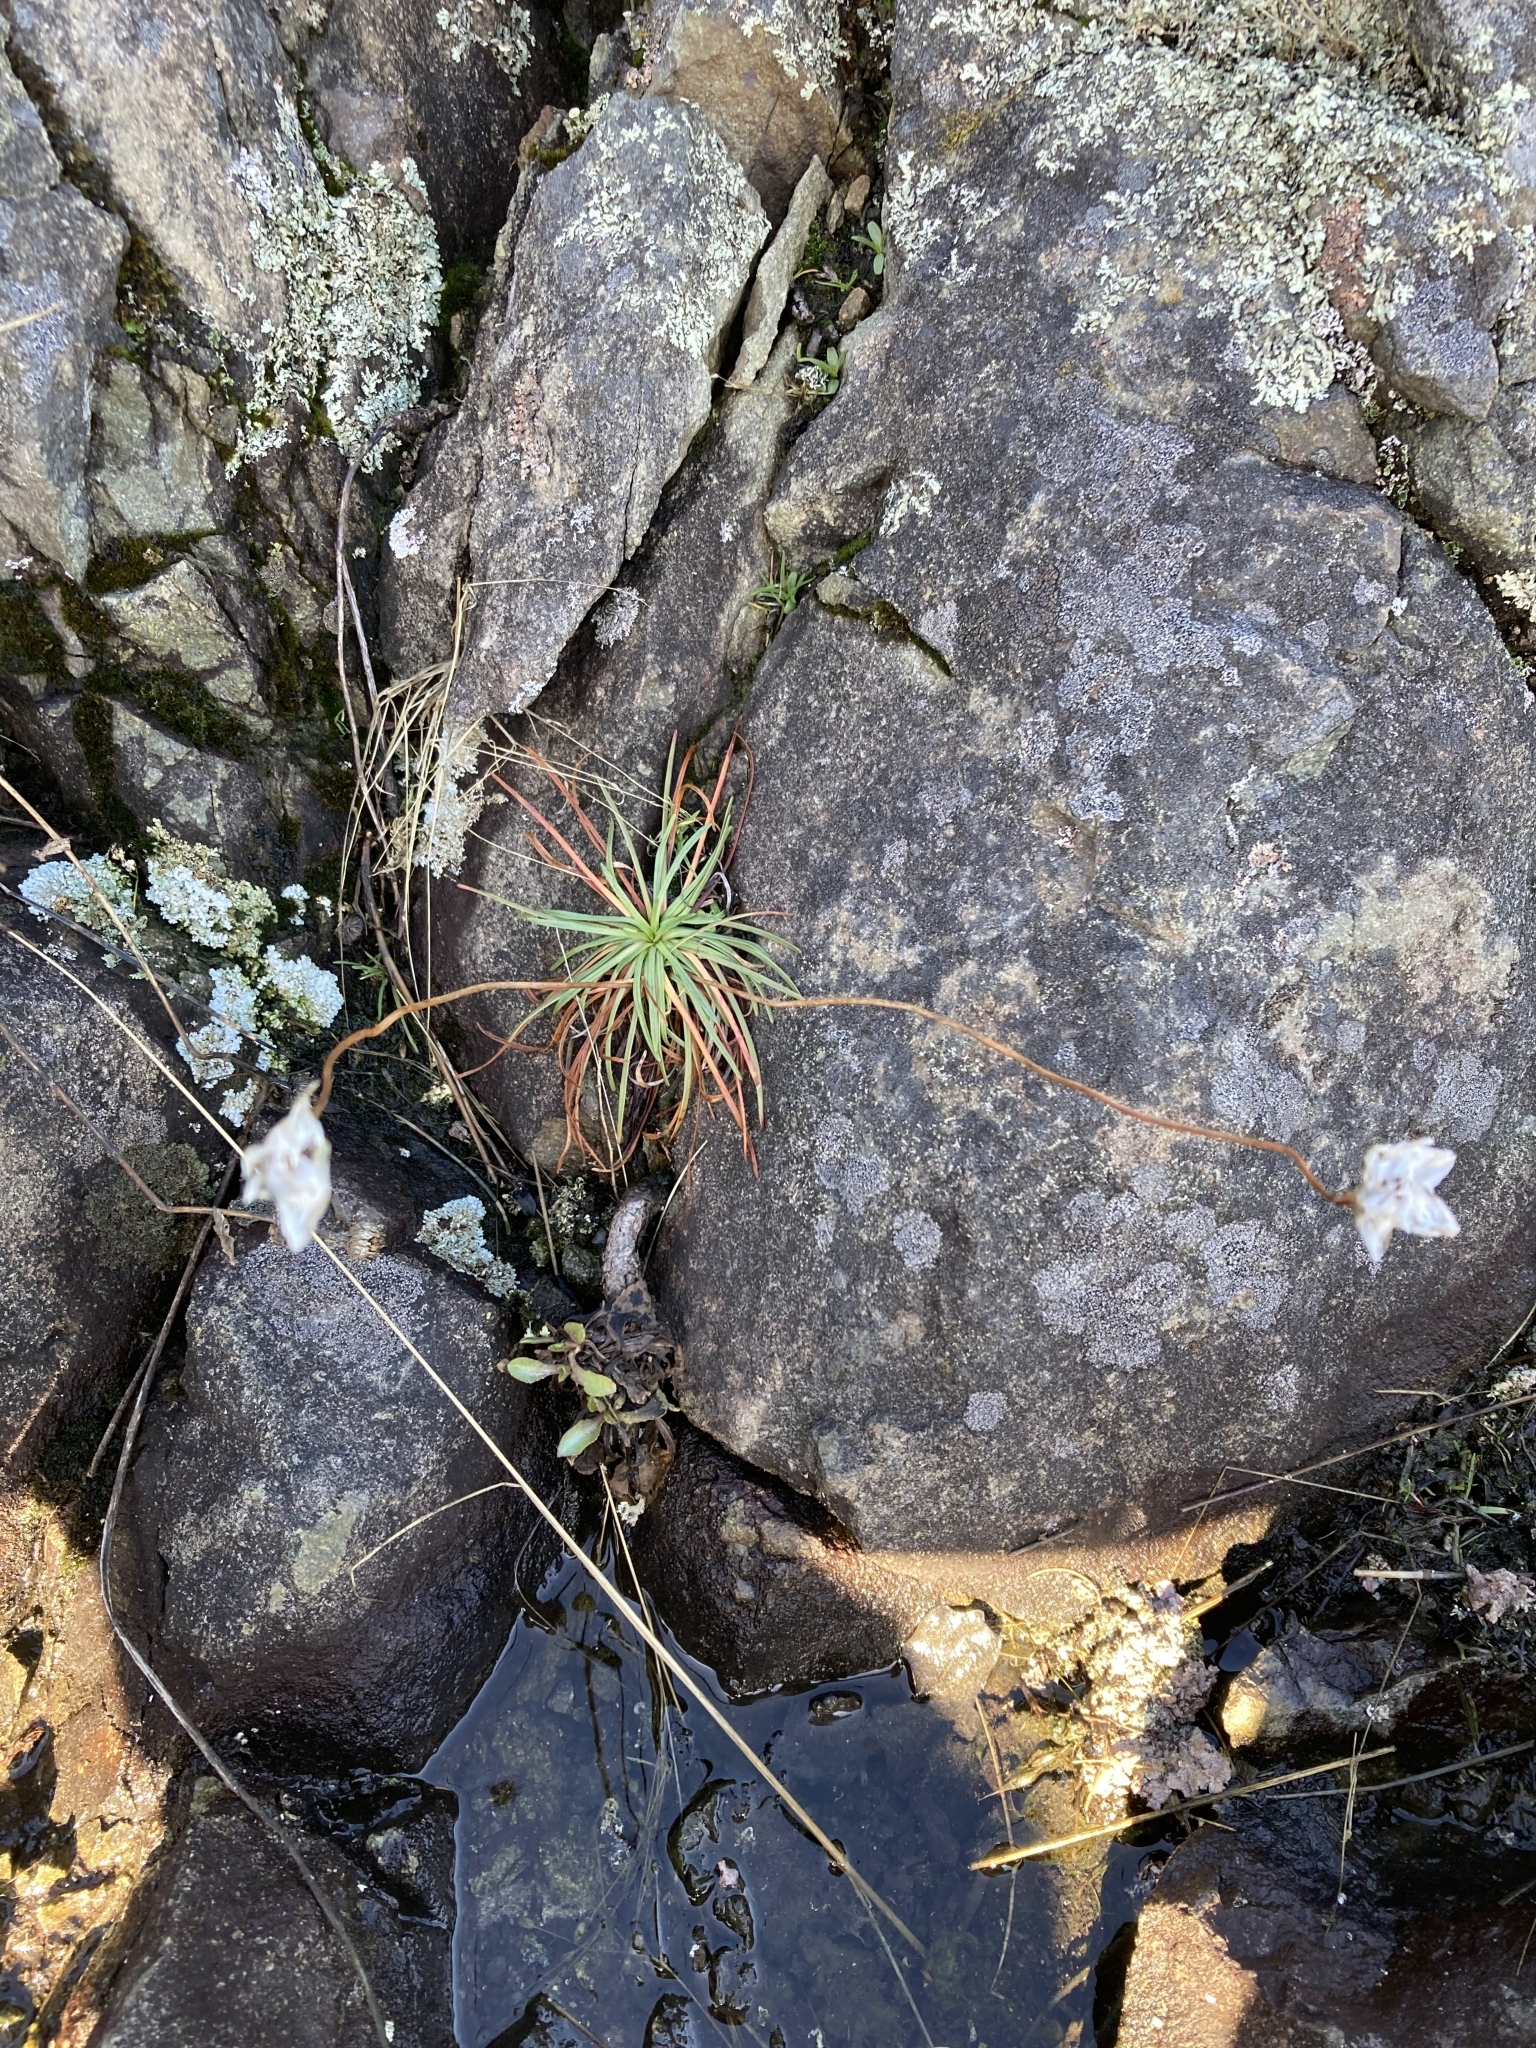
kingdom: Plantae
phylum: Tracheophyta
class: Magnoliopsida
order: Caryophyllales
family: Plumbaginaceae
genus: Armeria
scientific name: Armeria maritima
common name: Thrift
